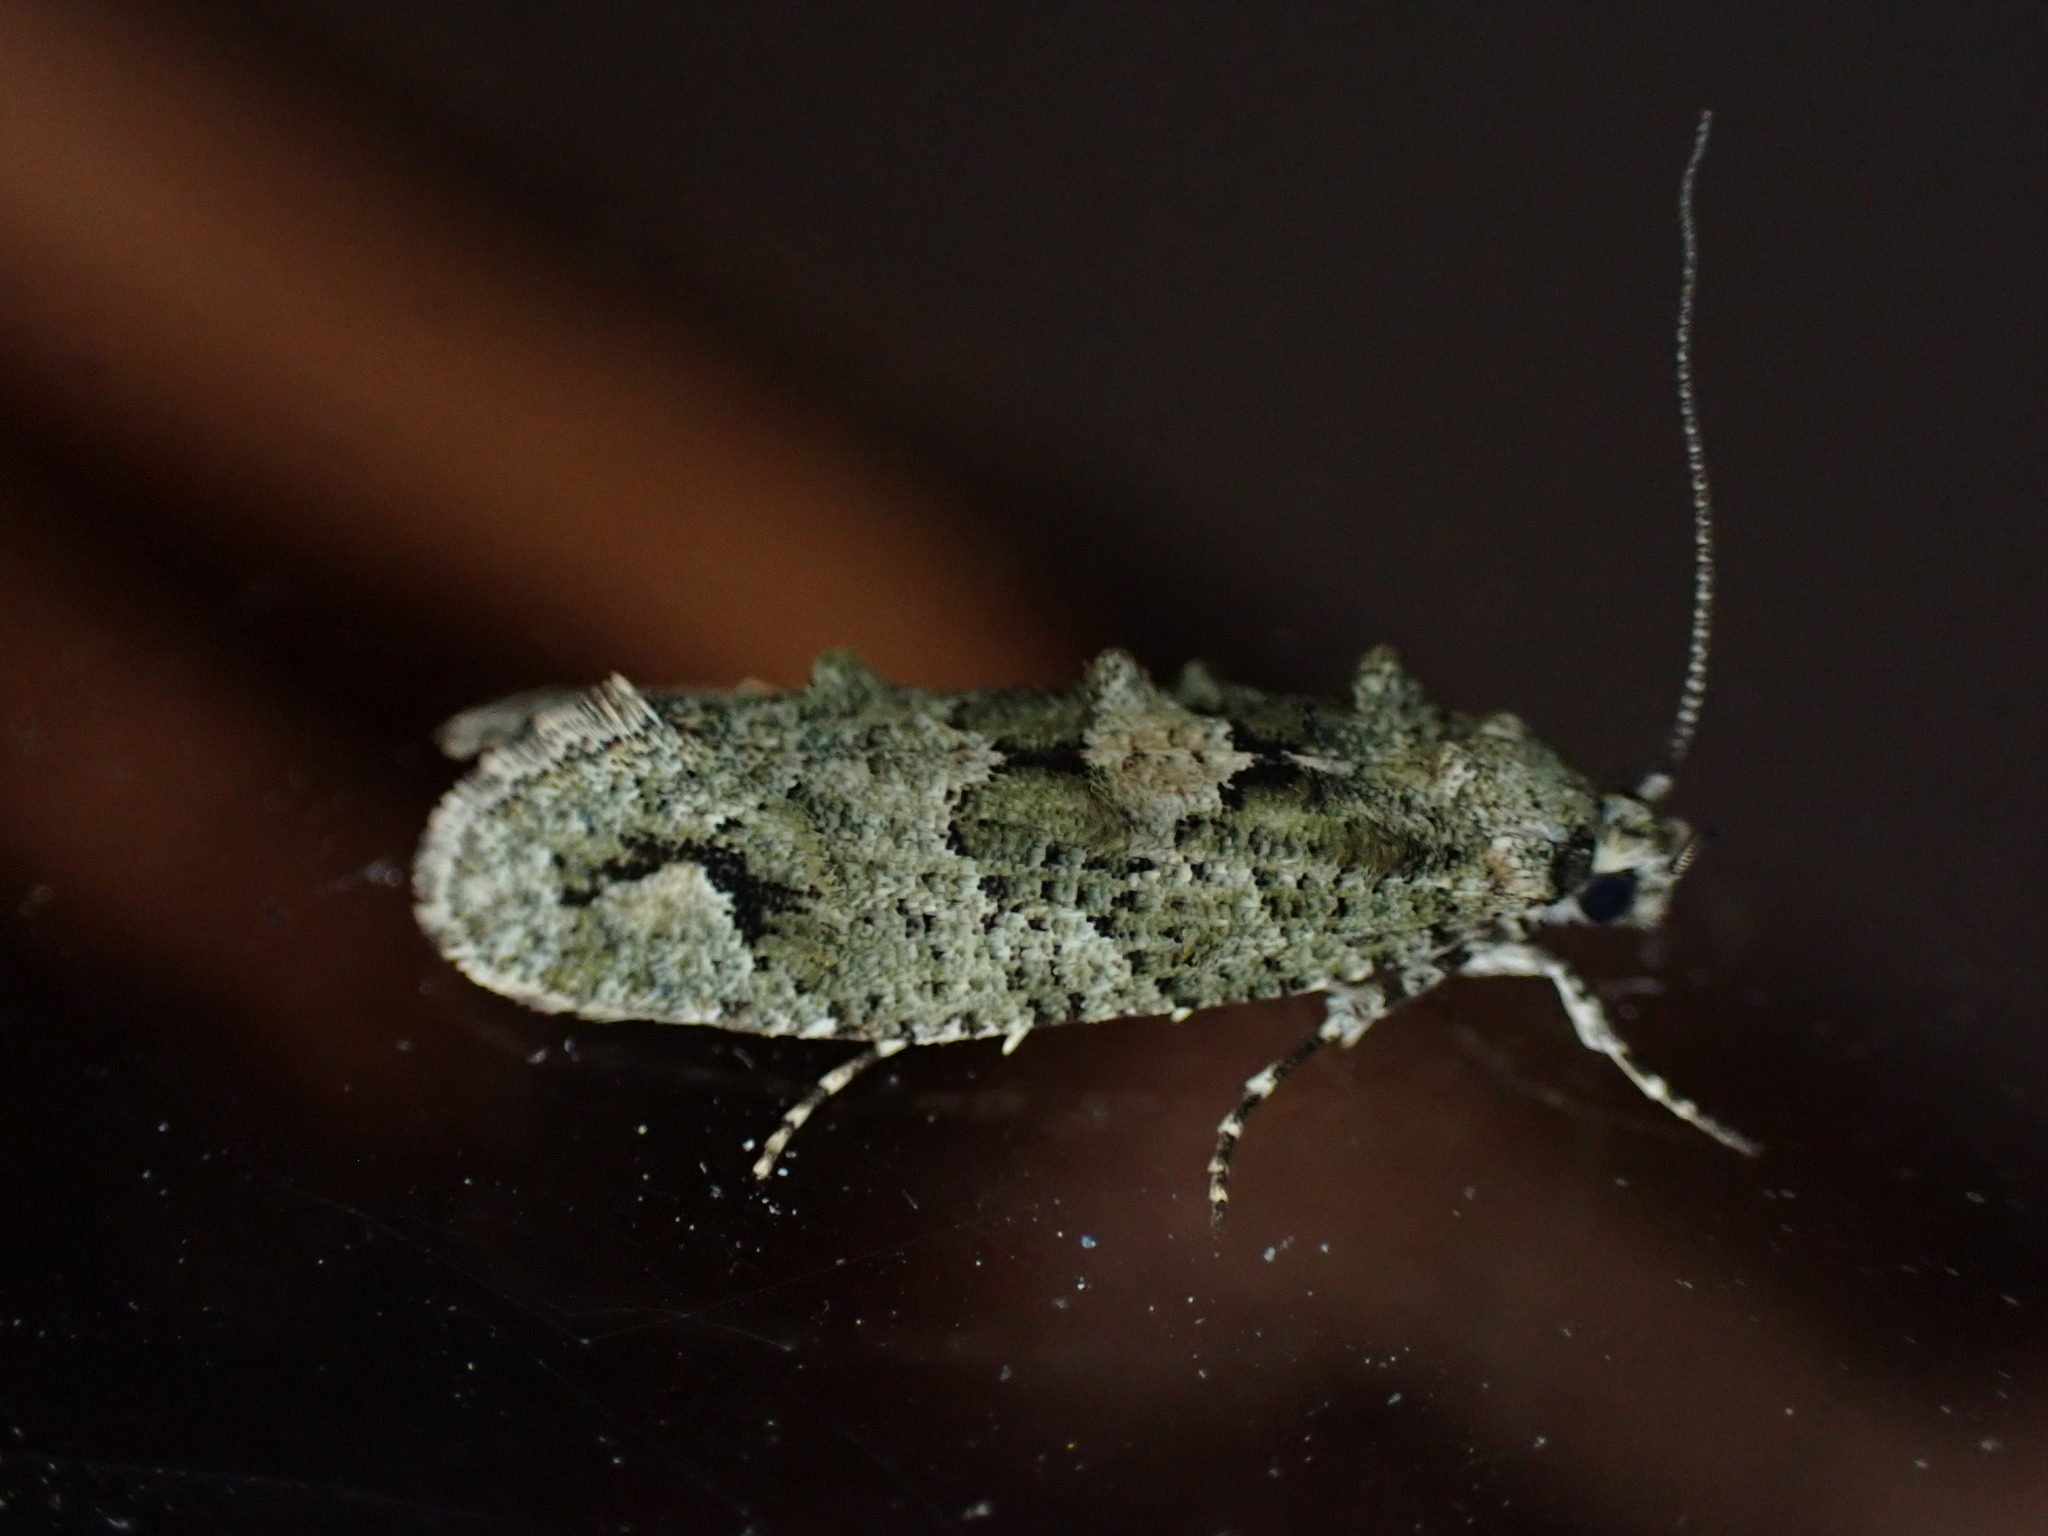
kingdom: Animalia
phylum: Arthropoda
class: Insecta
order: Lepidoptera
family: Tineidae
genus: Lysiphragma
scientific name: Lysiphragma howesii
